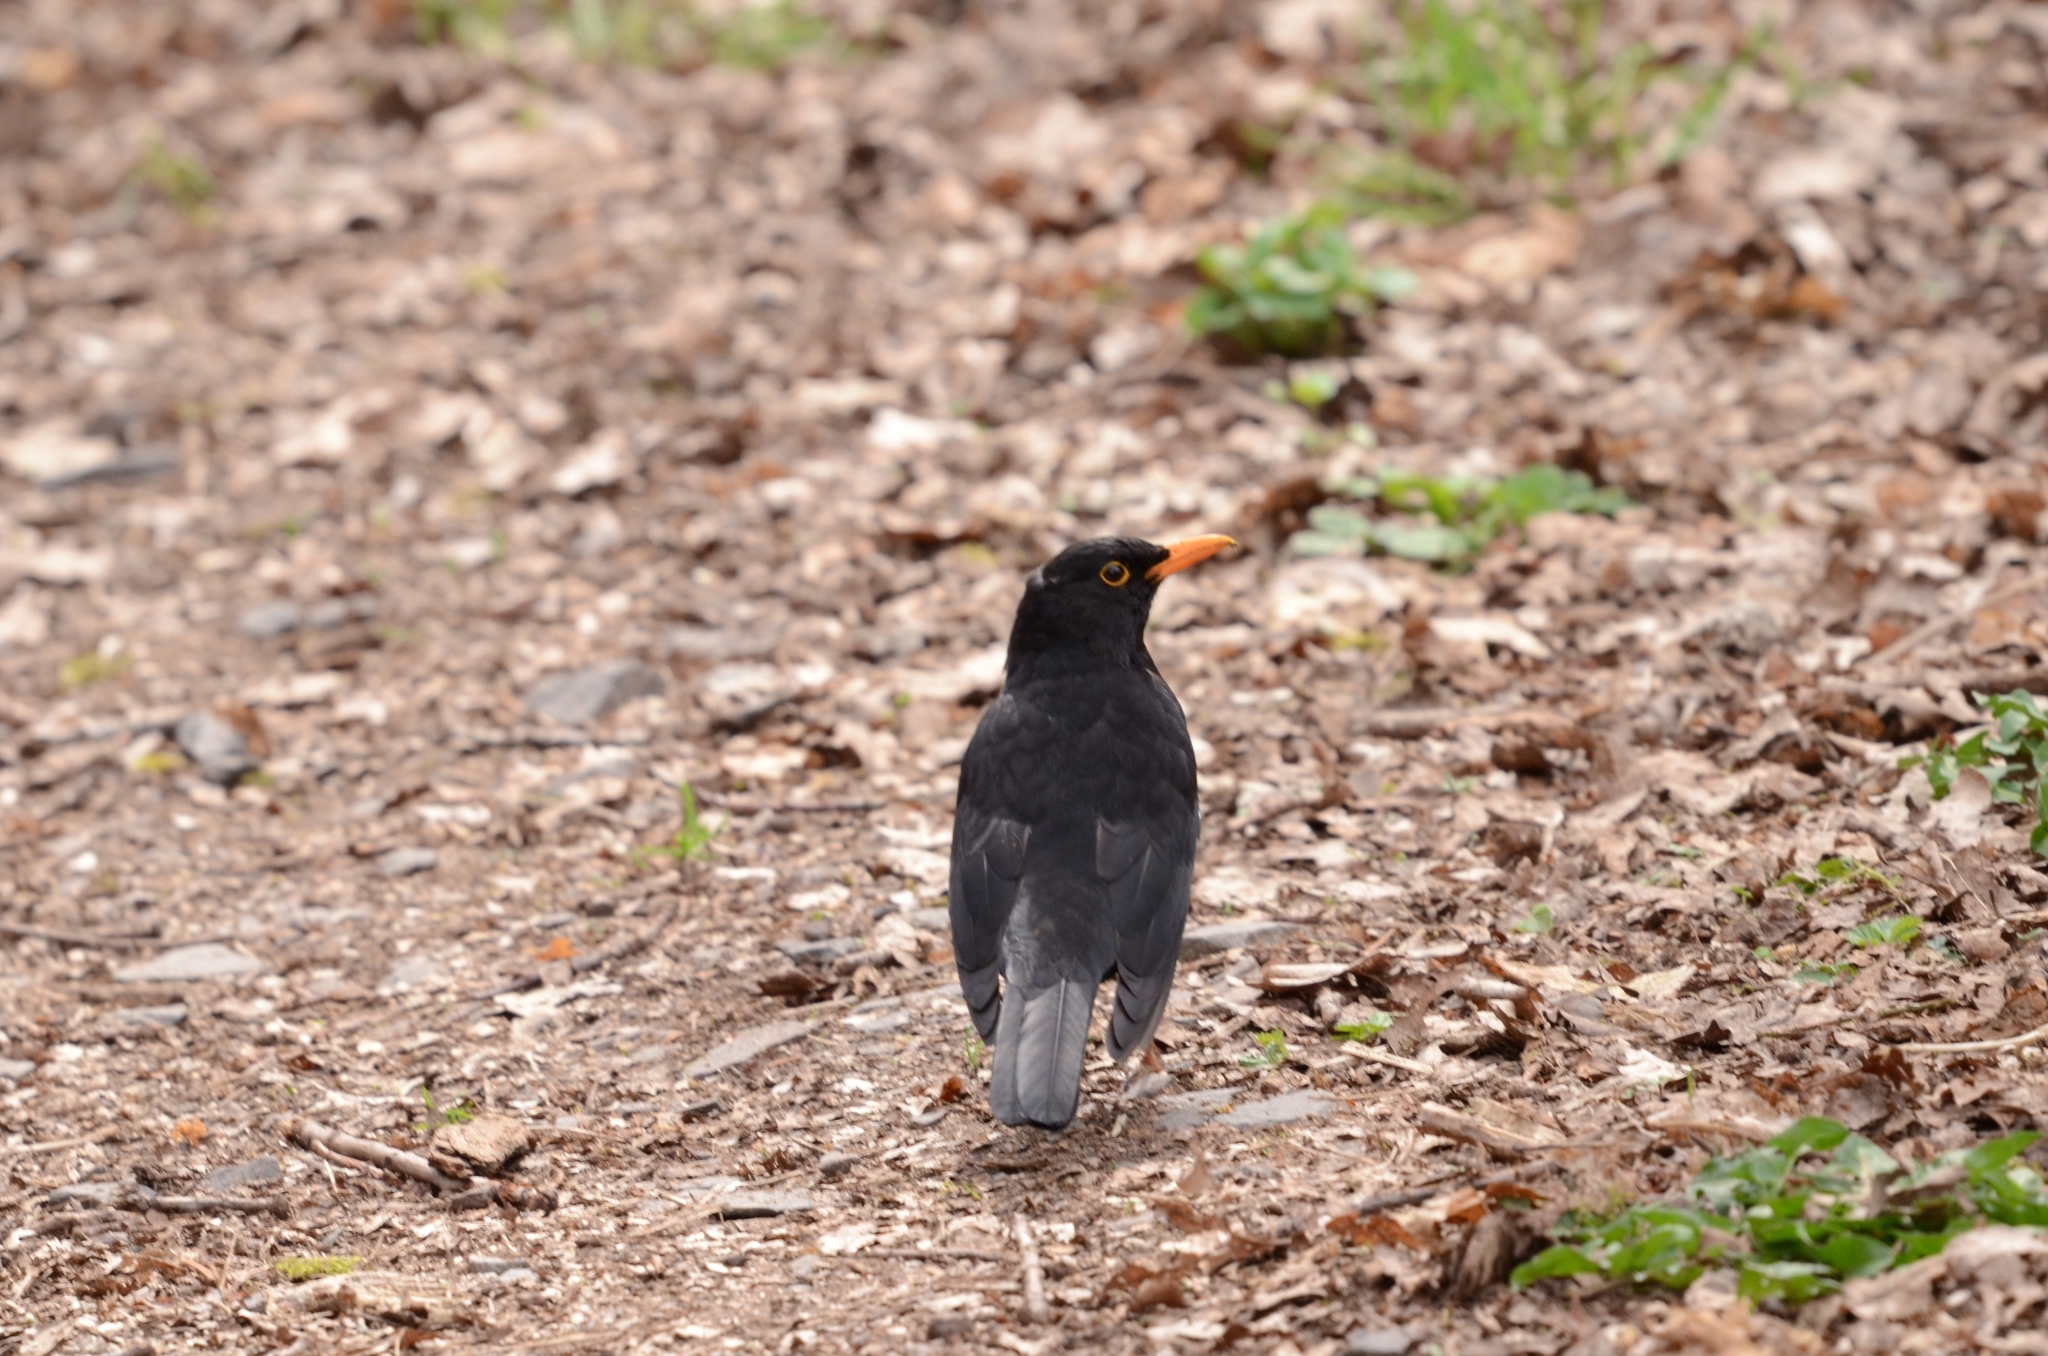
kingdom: Animalia
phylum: Chordata
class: Aves
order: Passeriformes
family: Turdidae
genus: Turdus
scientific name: Turdus merula
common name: Common blackbird
